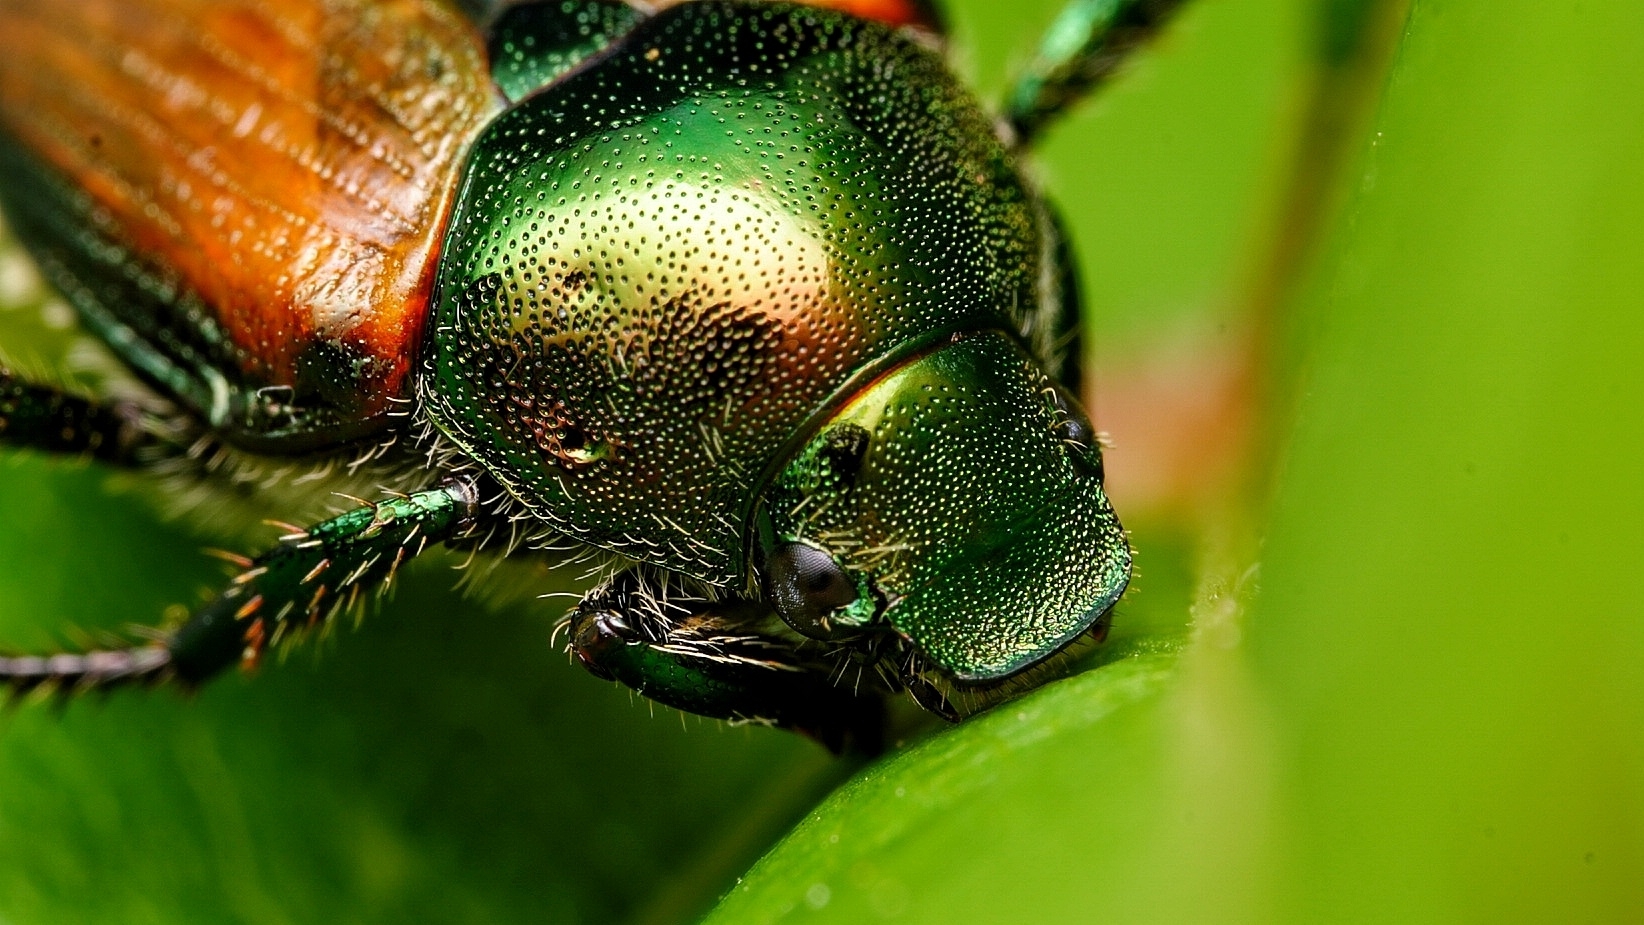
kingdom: Animalia
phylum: Arthropoda
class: Insecta
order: Coleoptera
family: Scarabaeidae
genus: Popillia
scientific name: Popillia japonica
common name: Japanese beetle
